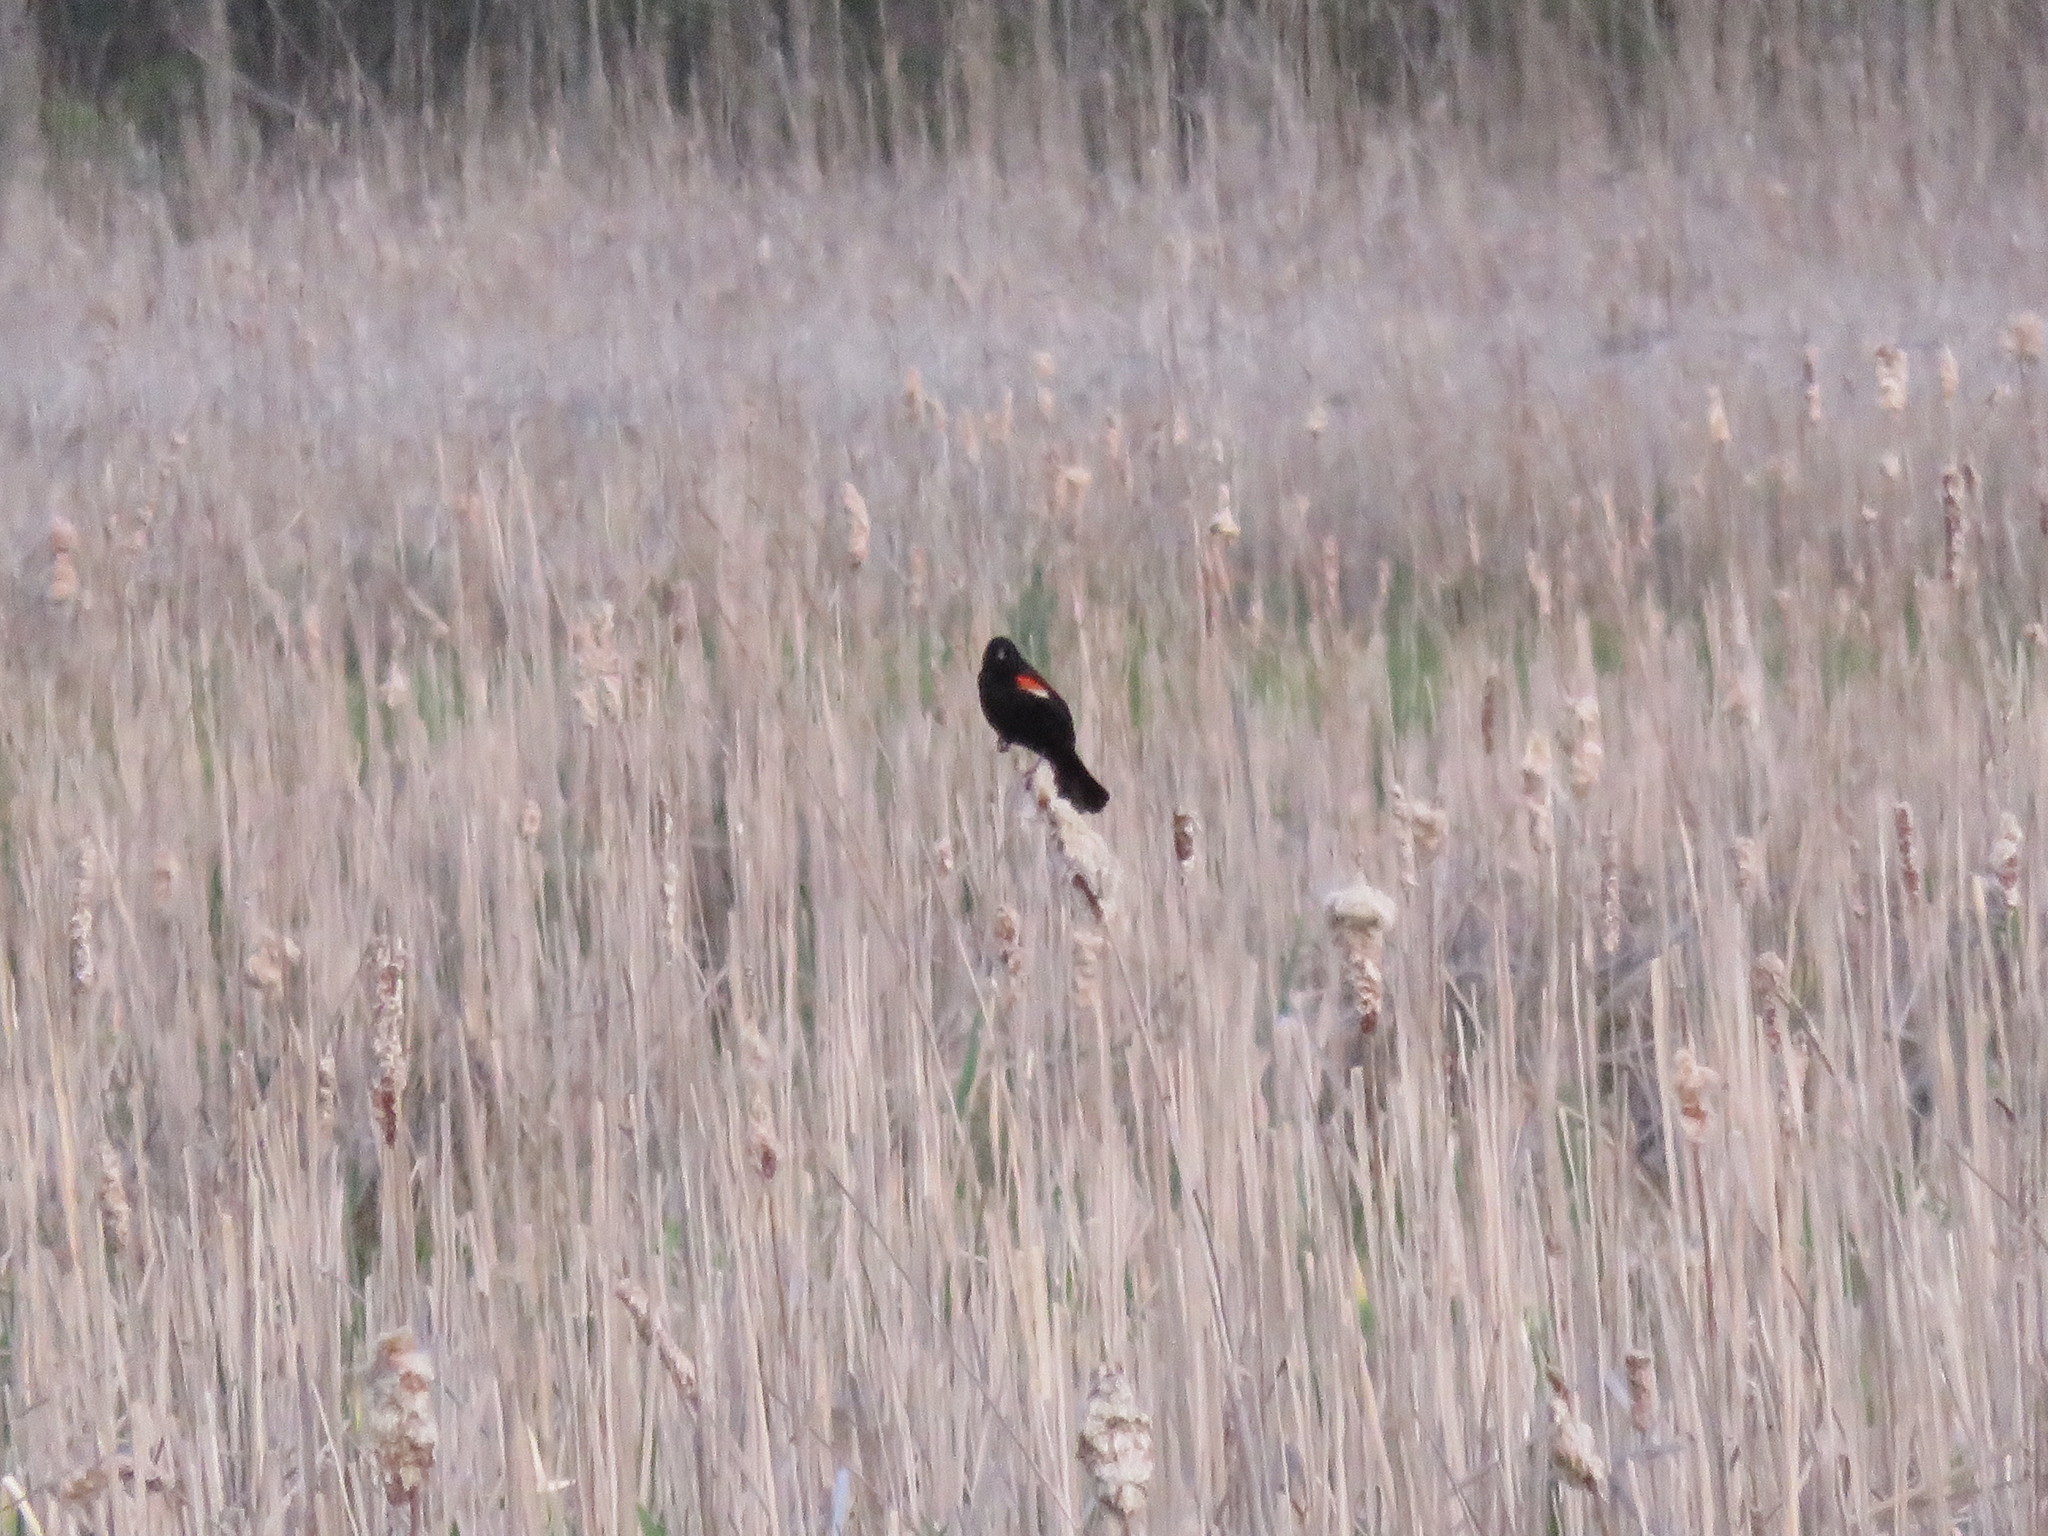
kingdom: Animalia
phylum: Chordata
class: Aves
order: Passeriformes
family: Icteridae
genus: Agelaius
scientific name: Agelaius phoeniceus
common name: Red-winged blackbird
